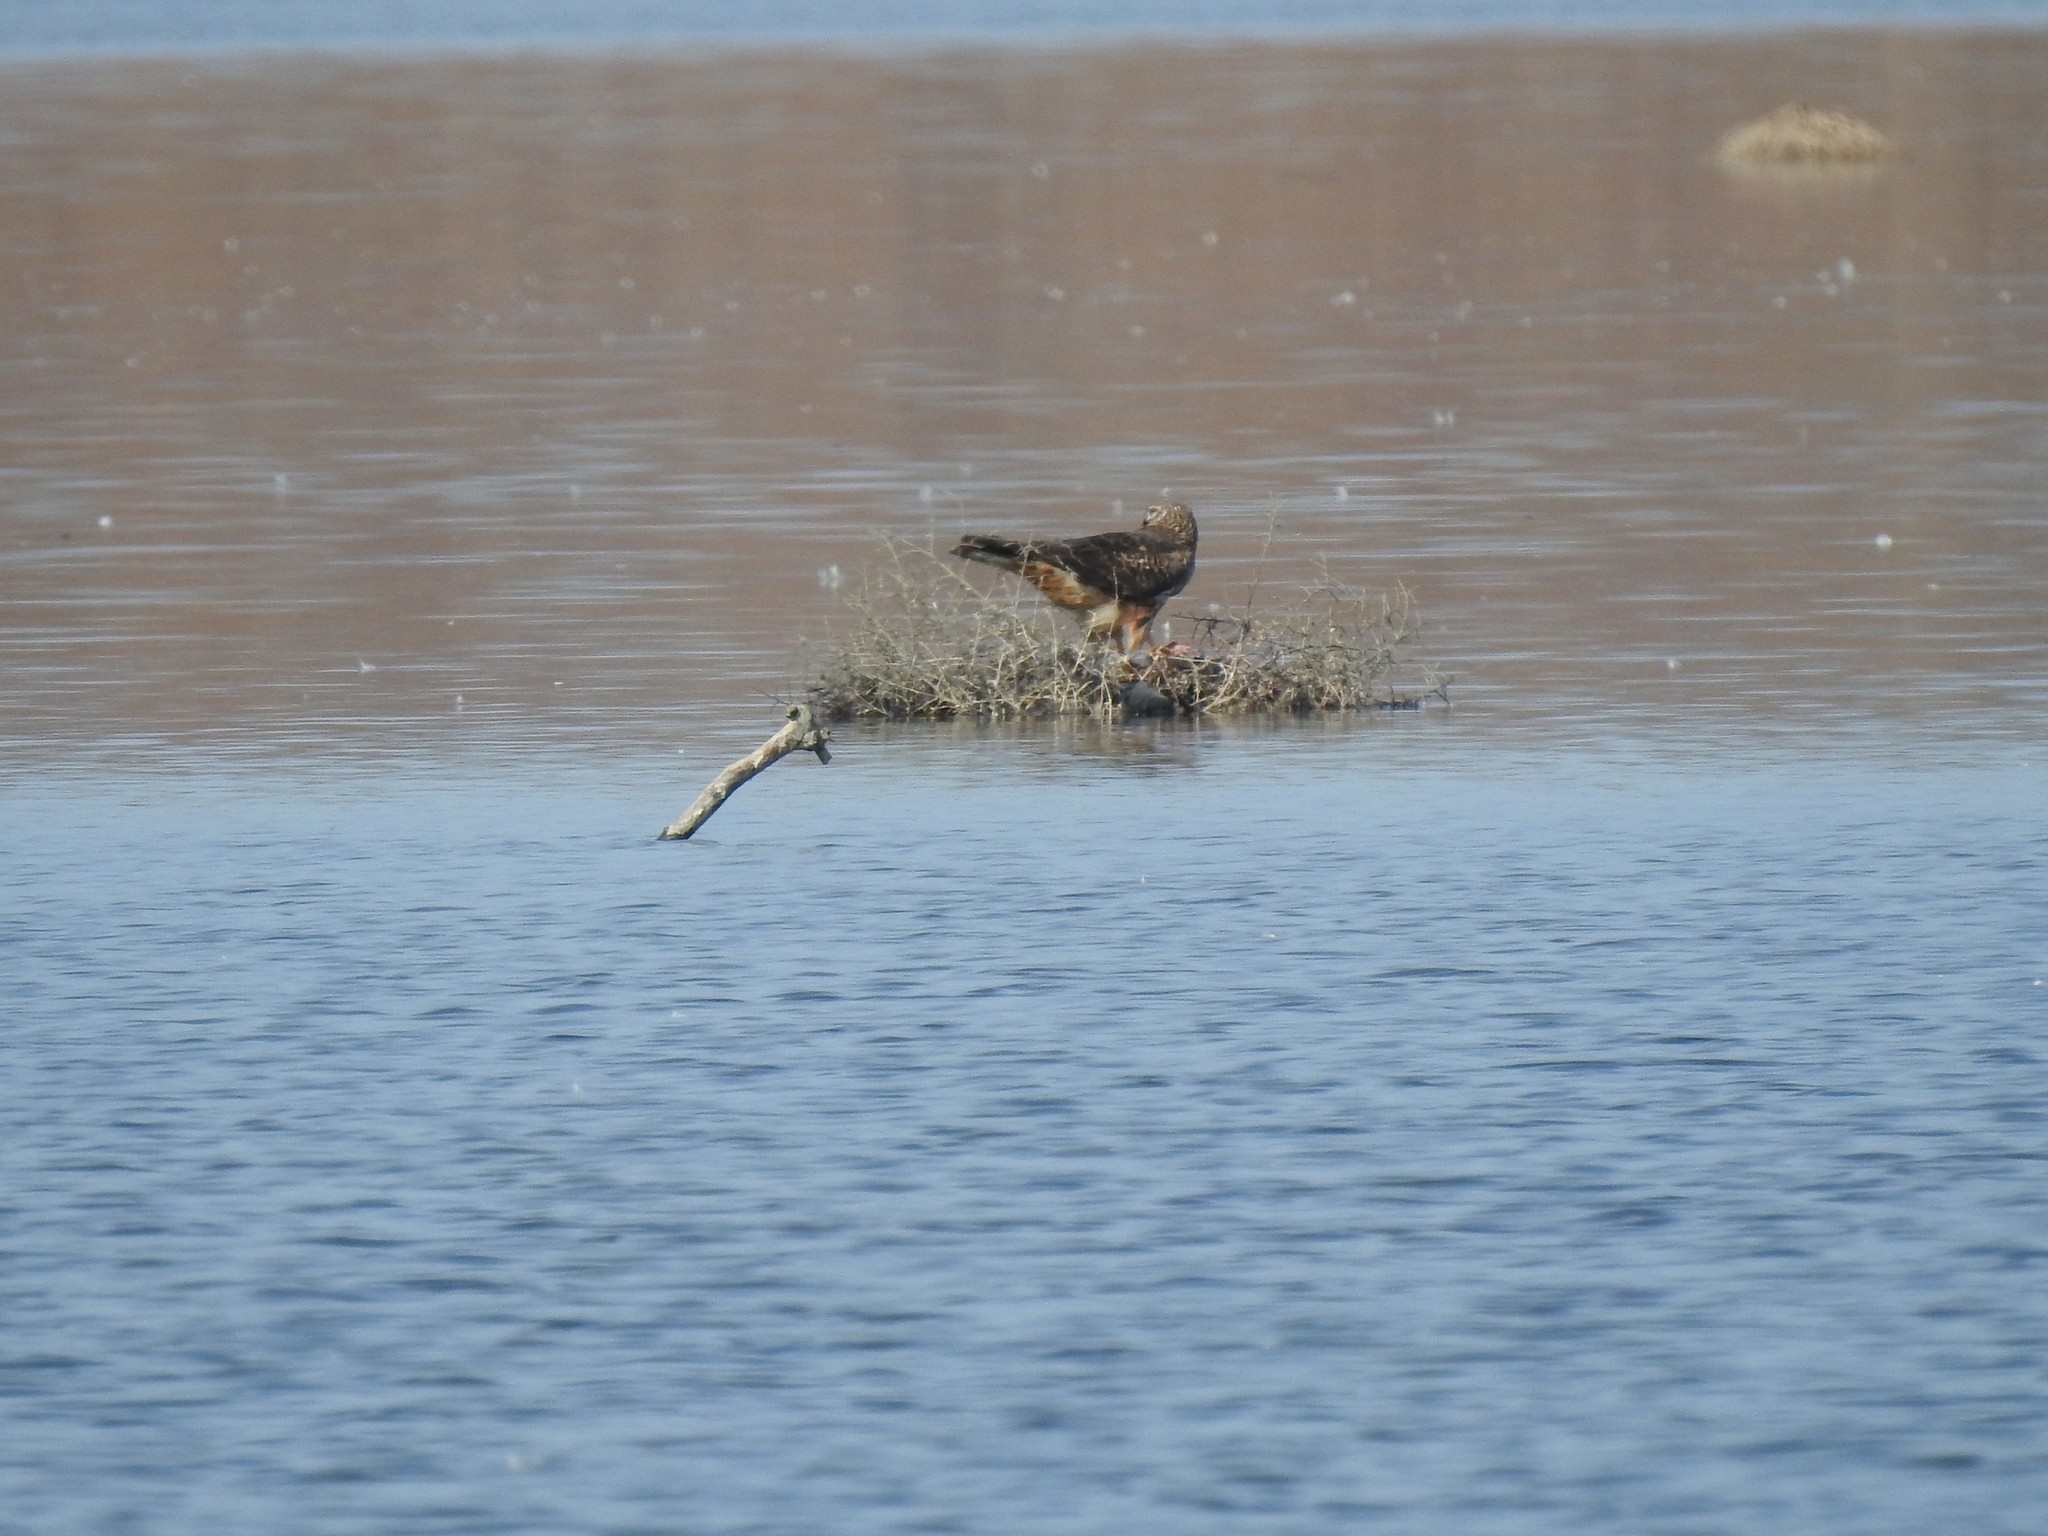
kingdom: Animalia
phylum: Chordata
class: Aves
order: Accipitriformes
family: Accipitridae
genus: Circus
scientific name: Circus cyaneus
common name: Hen harrier
